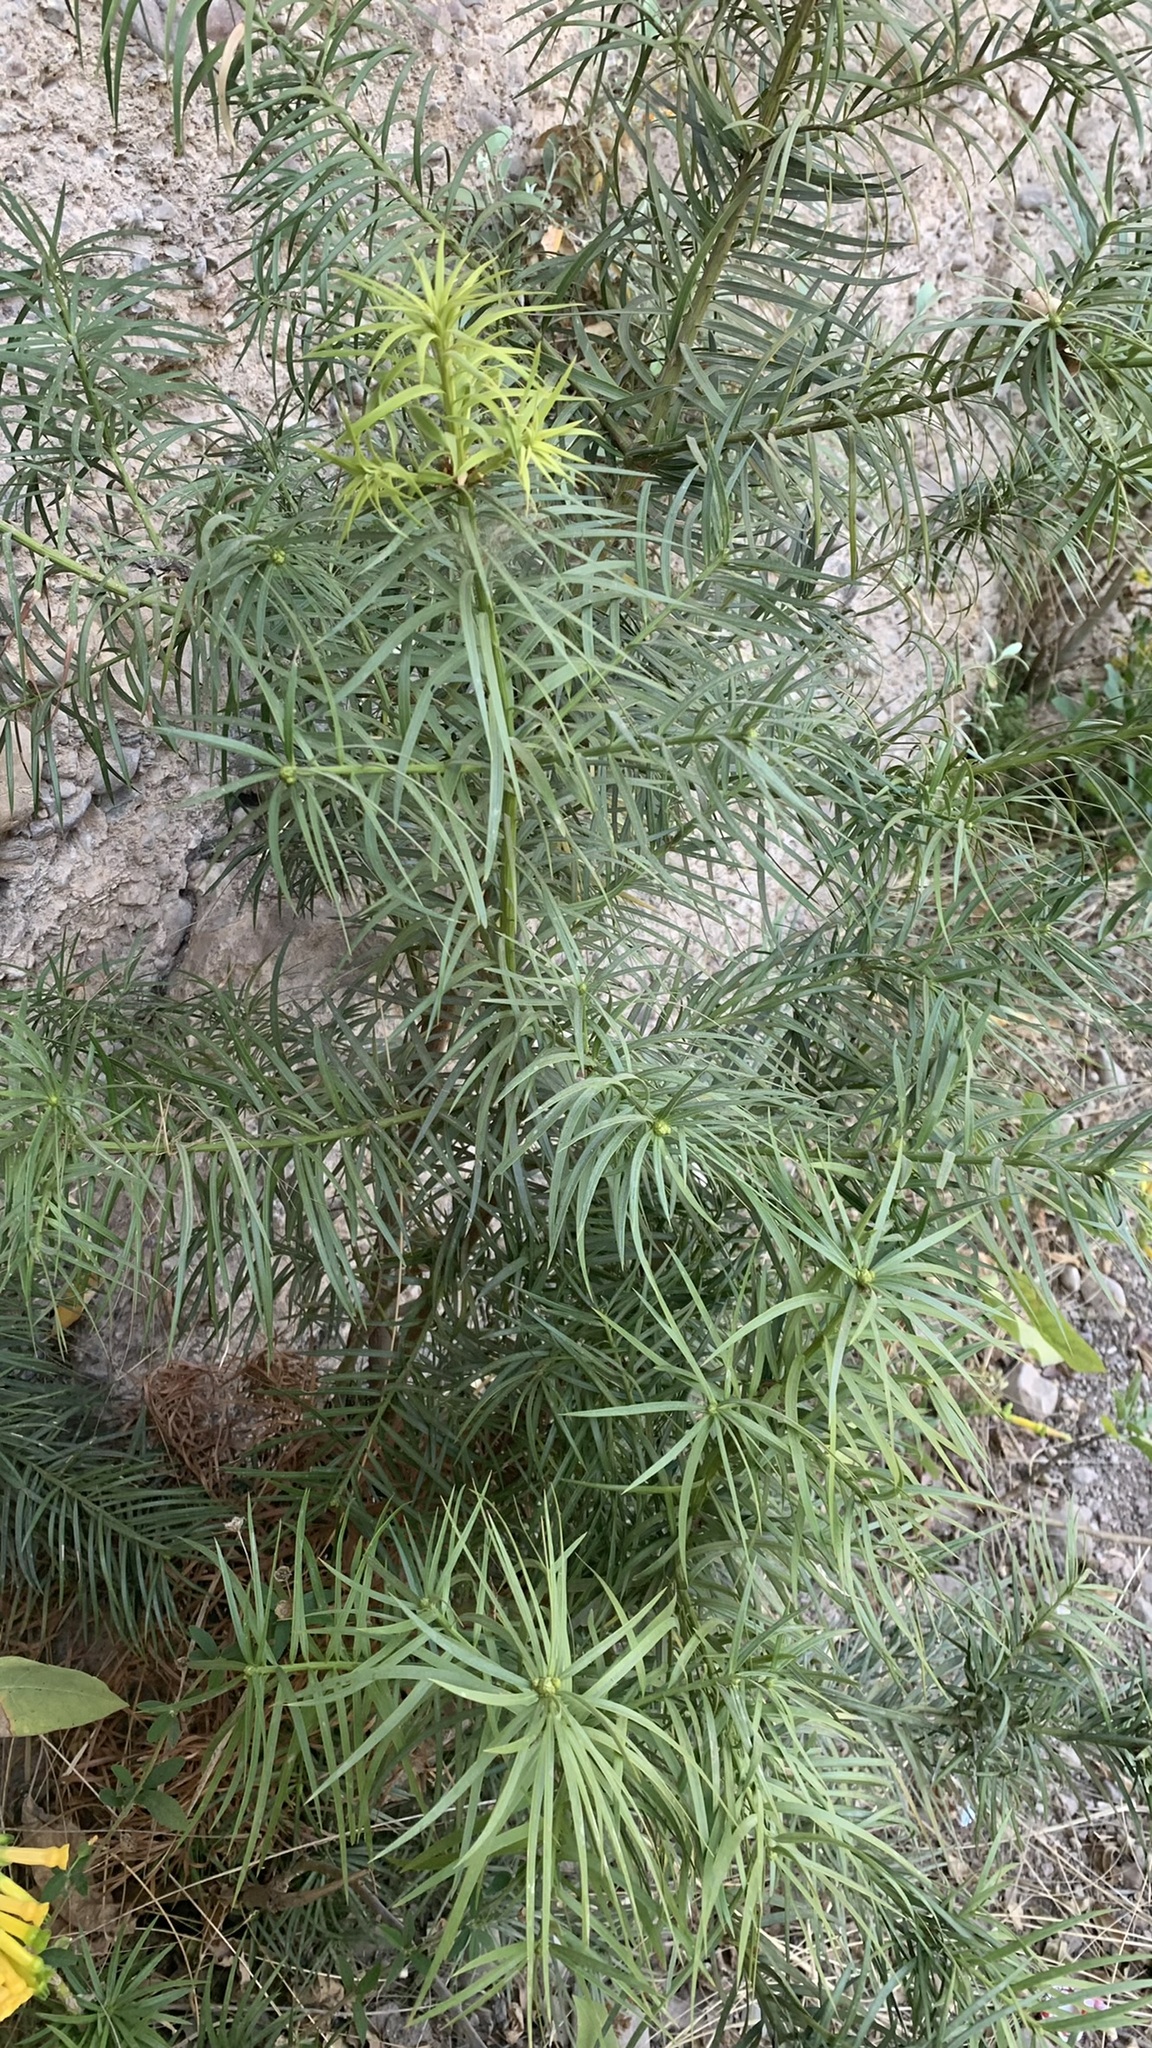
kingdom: Plantae
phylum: Tracheophyta
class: Pinopsida
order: Pinales
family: Podocarpaceae
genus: Podocarpus
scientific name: Podocarpus parlatorei
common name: Pino blanco
